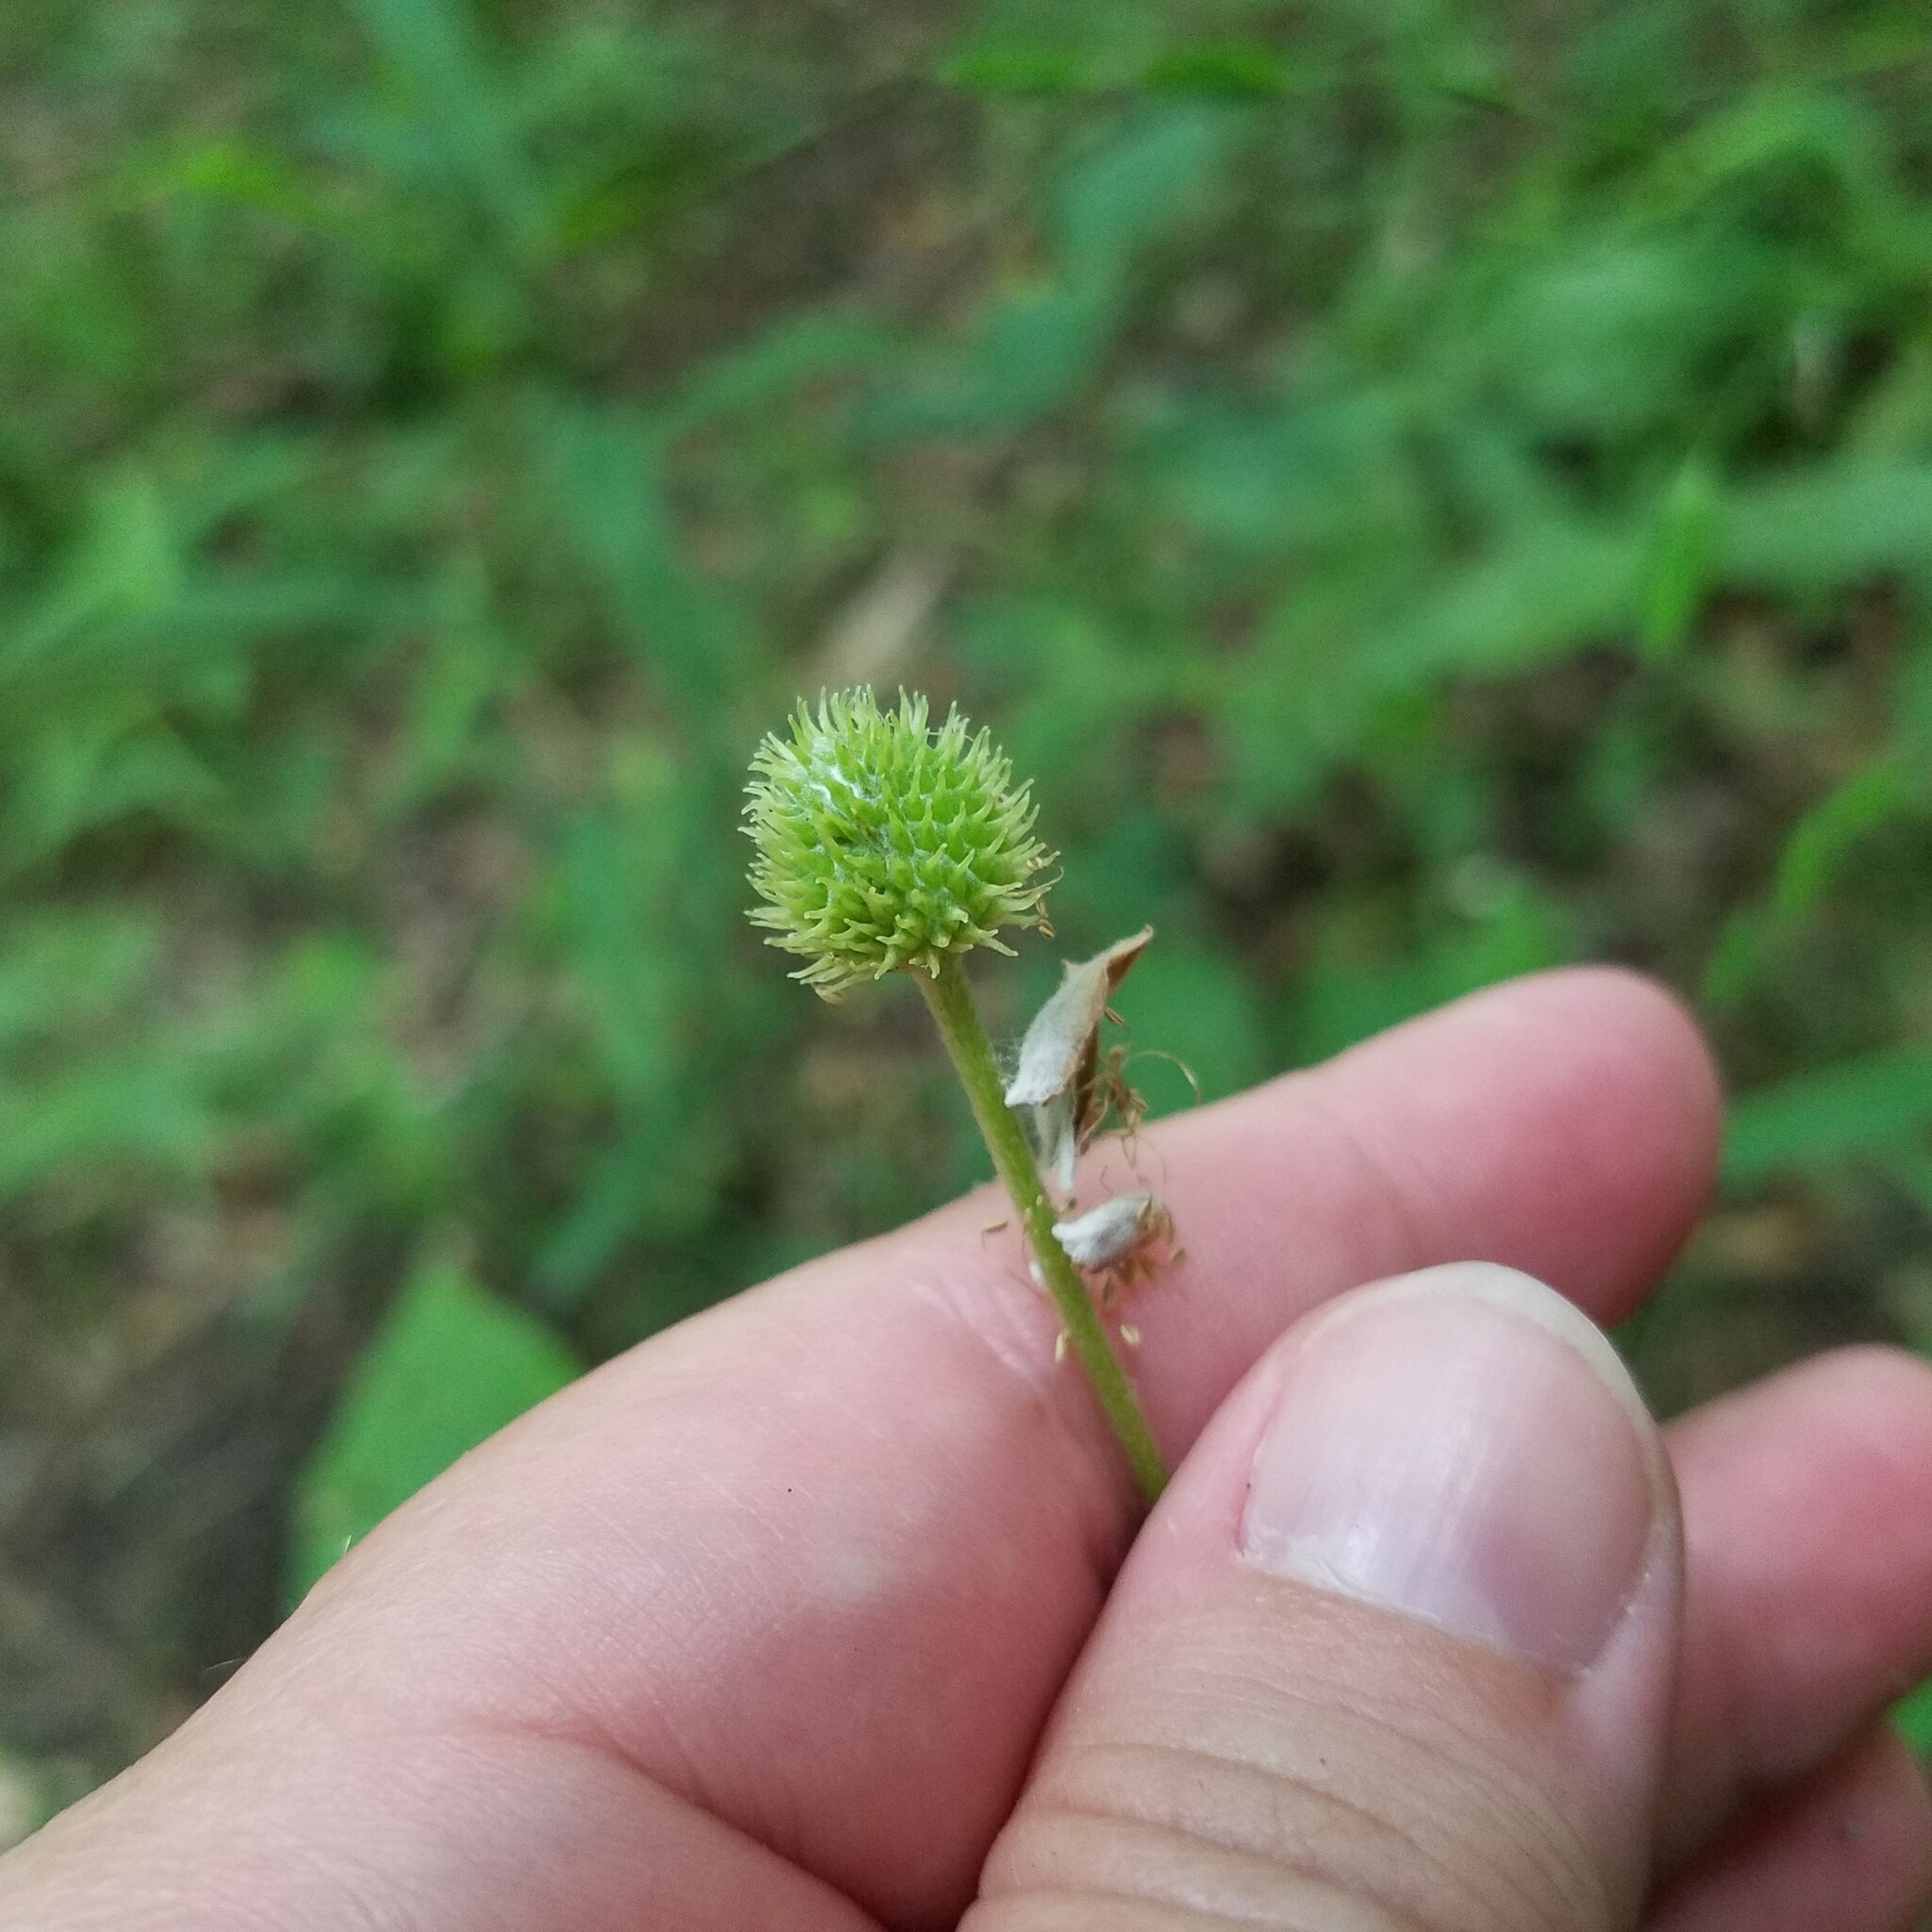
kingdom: Plantae
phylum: Tracheophyta
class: Magnoliopsida
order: Ranunculales
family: Ranunculaceae
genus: Anemone
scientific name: Anemone virginiana
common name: Tall anemone
